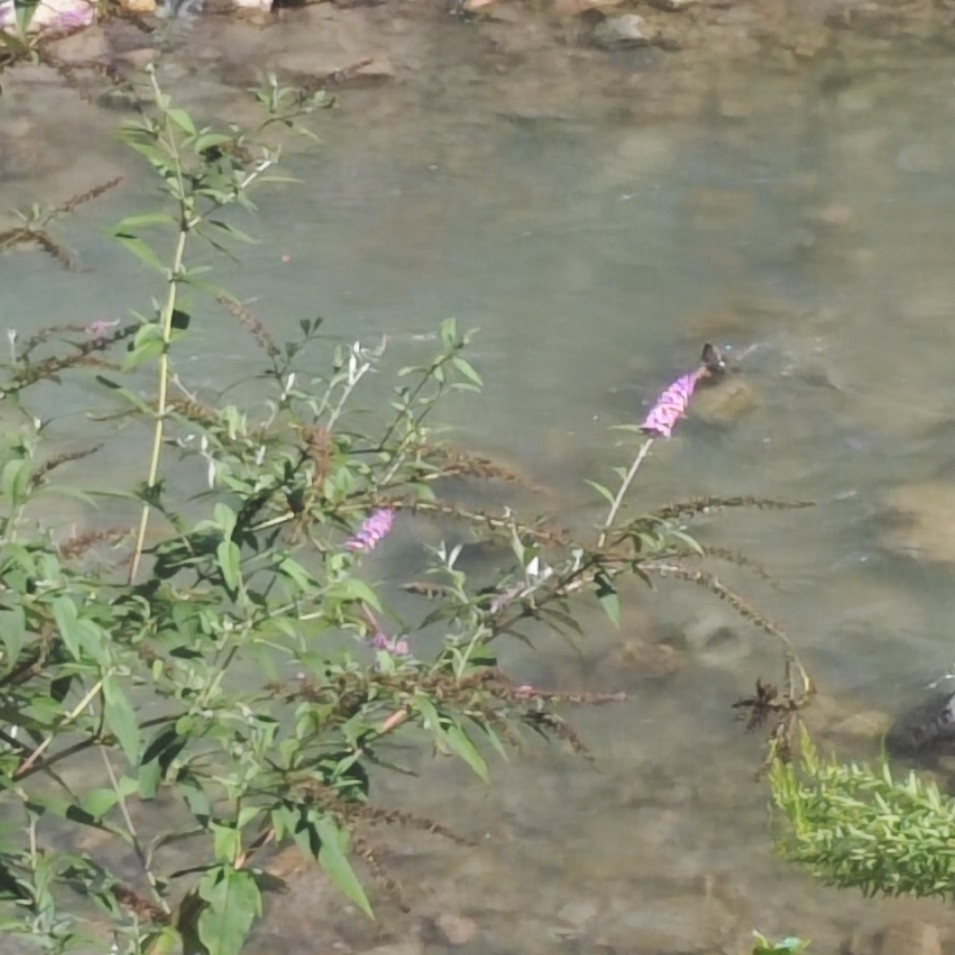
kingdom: Plantae
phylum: Tracheophyta
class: Magnoliopsida
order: Lamiales
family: Scrophulariaceae
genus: Buddleja
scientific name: Buddleja davidii
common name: Butterfly-bush
